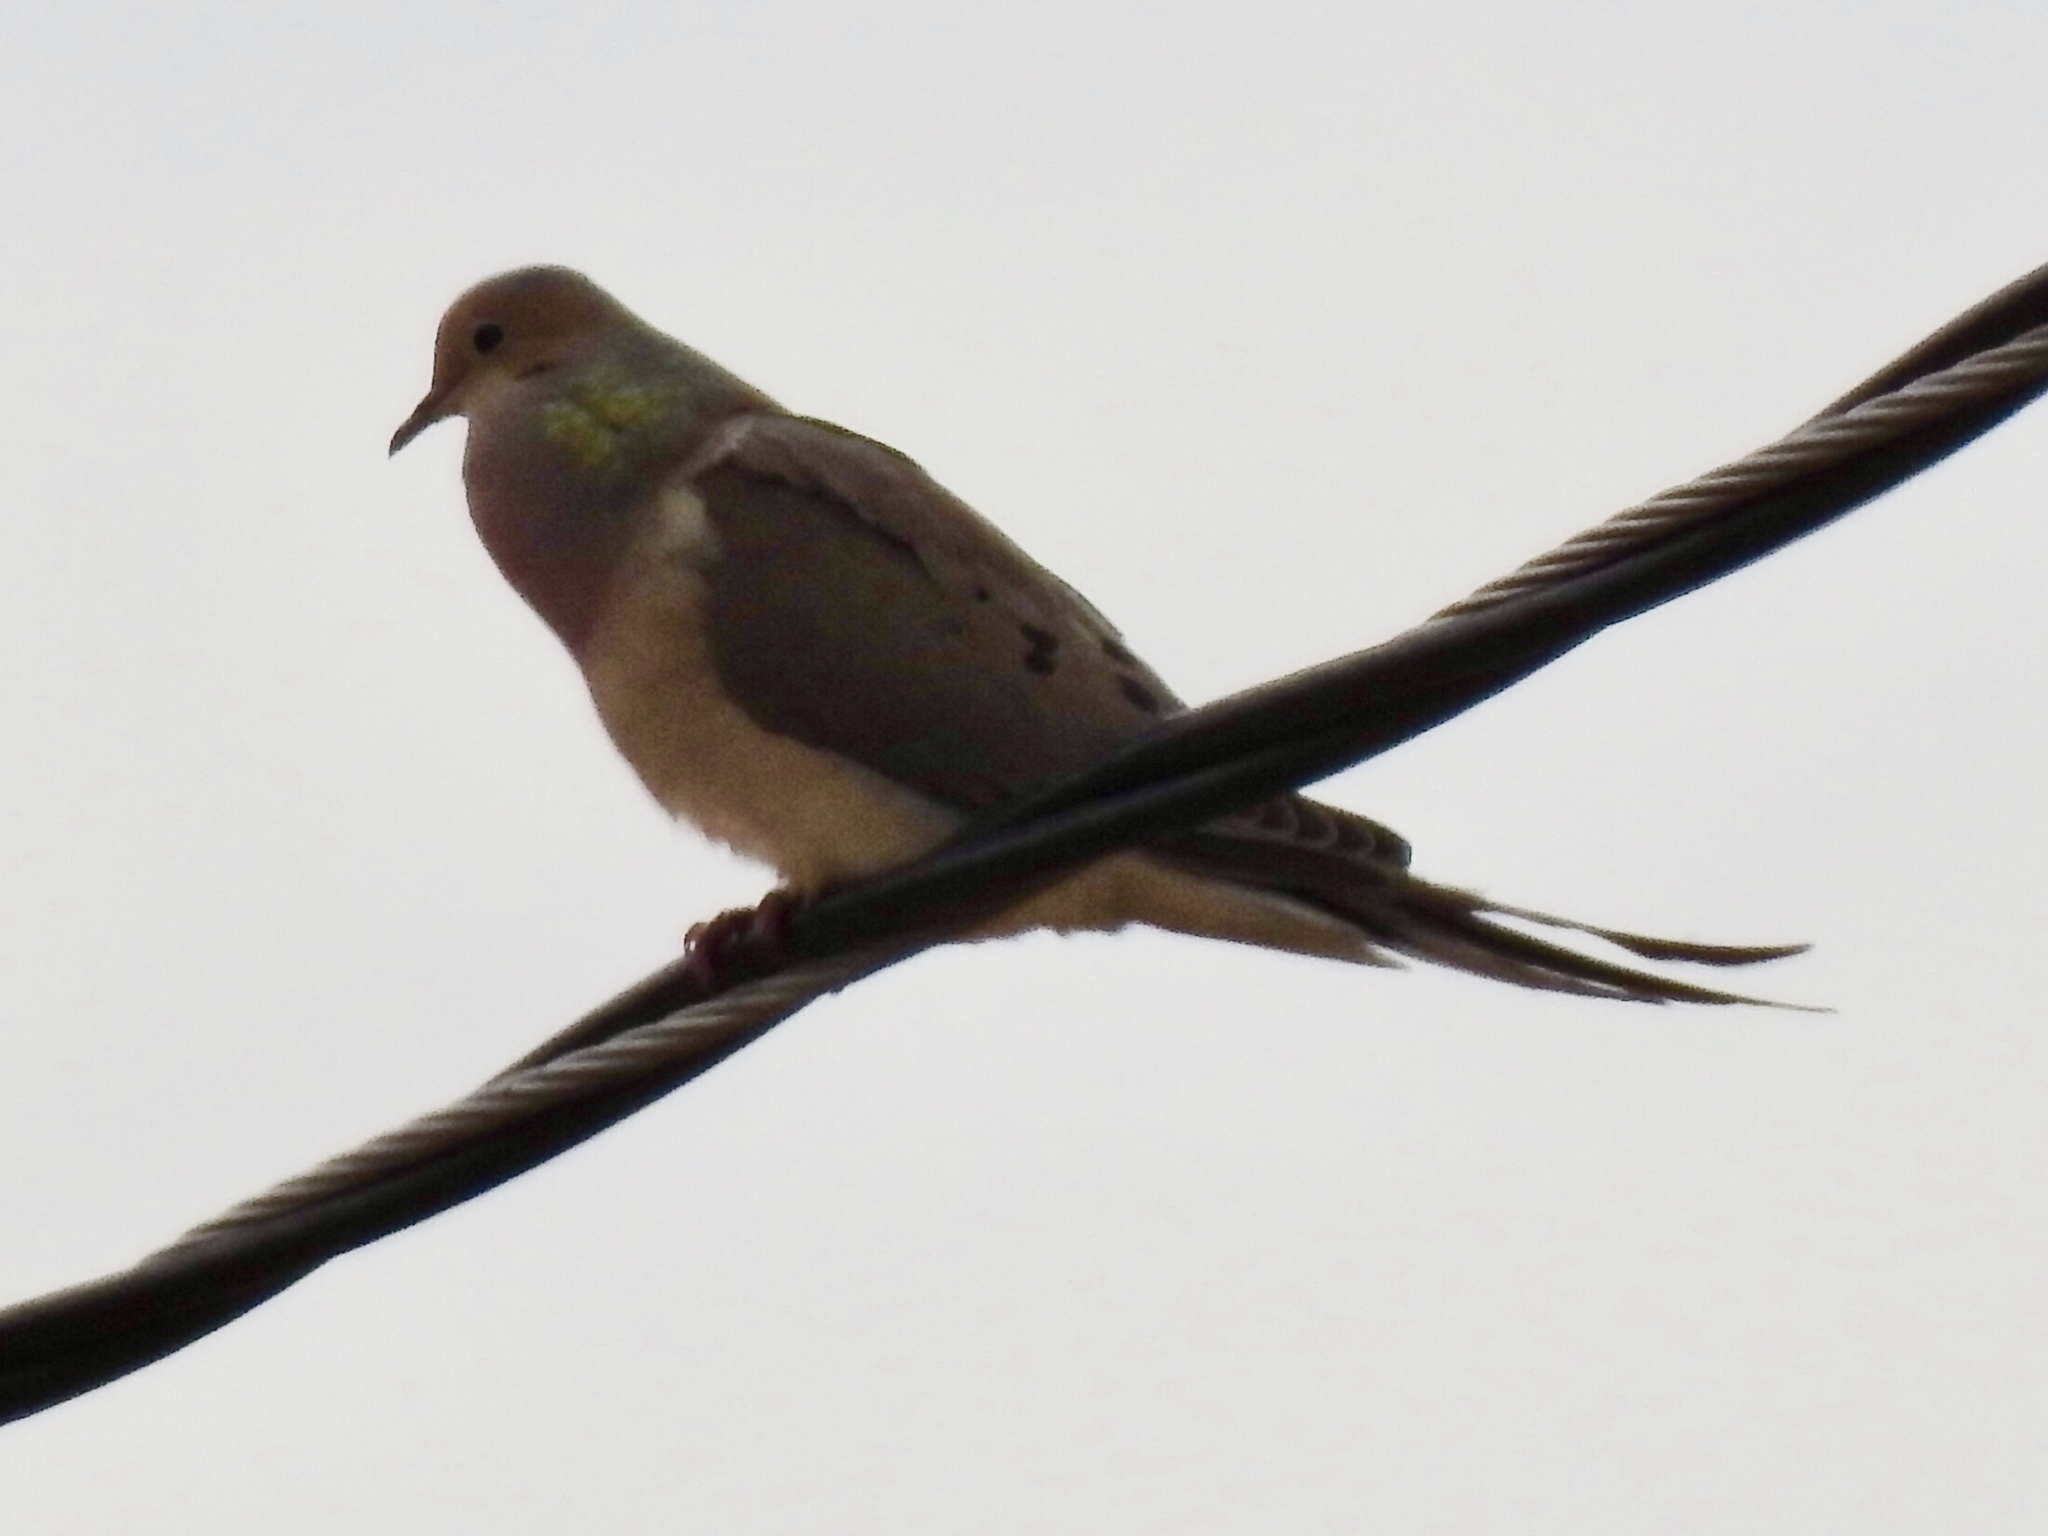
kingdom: Animalia
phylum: Chordata
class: Aves
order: Columbiformes
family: Columbidae
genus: Zenaida
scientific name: Zenaida macroura
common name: Mourning dove
